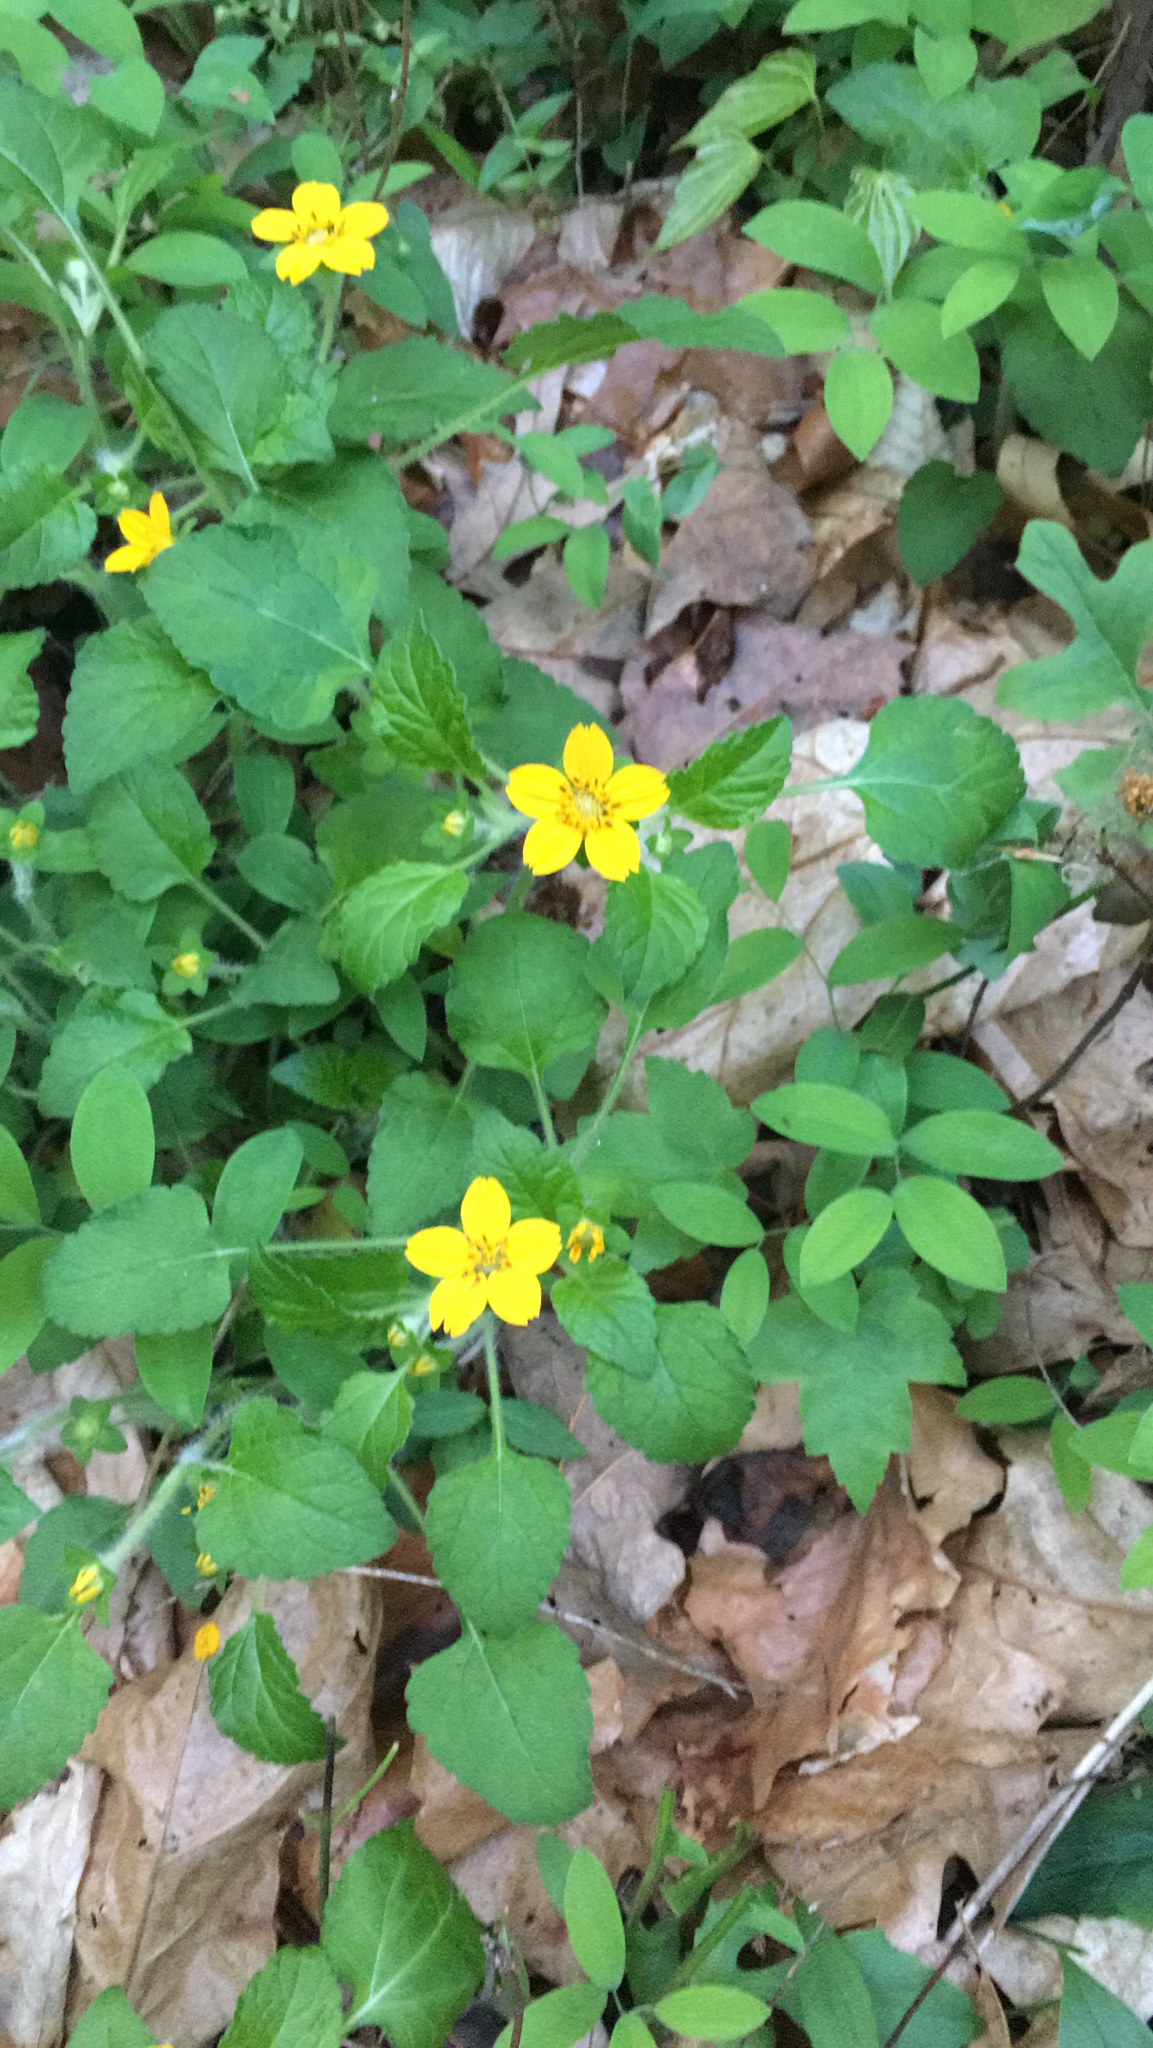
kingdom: Plantae
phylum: Tracheophyta
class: Magnoliopsida
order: Asterales
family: Asteraceae
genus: Chrysogonum
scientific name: Chrysogonum virginianum
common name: Golden-knee
